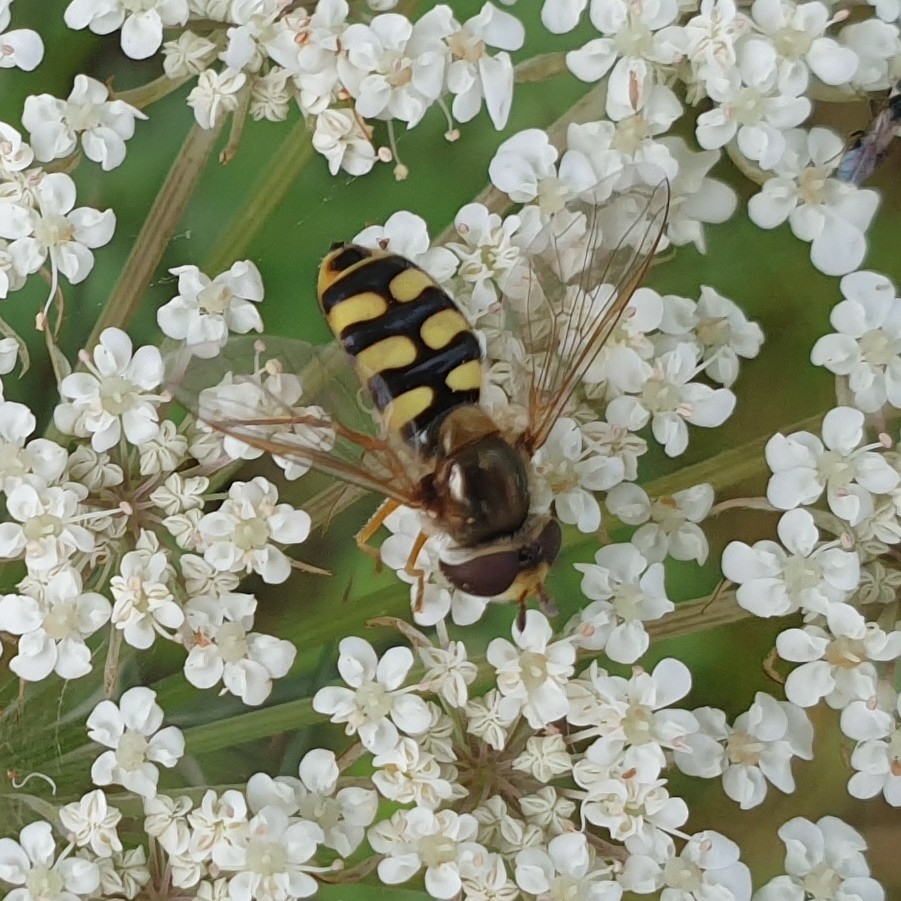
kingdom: Animalia
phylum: Arthropoda
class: Insecta
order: Diptera
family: Syrphidae
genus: Eupeodes
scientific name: Eupeodes corollae
